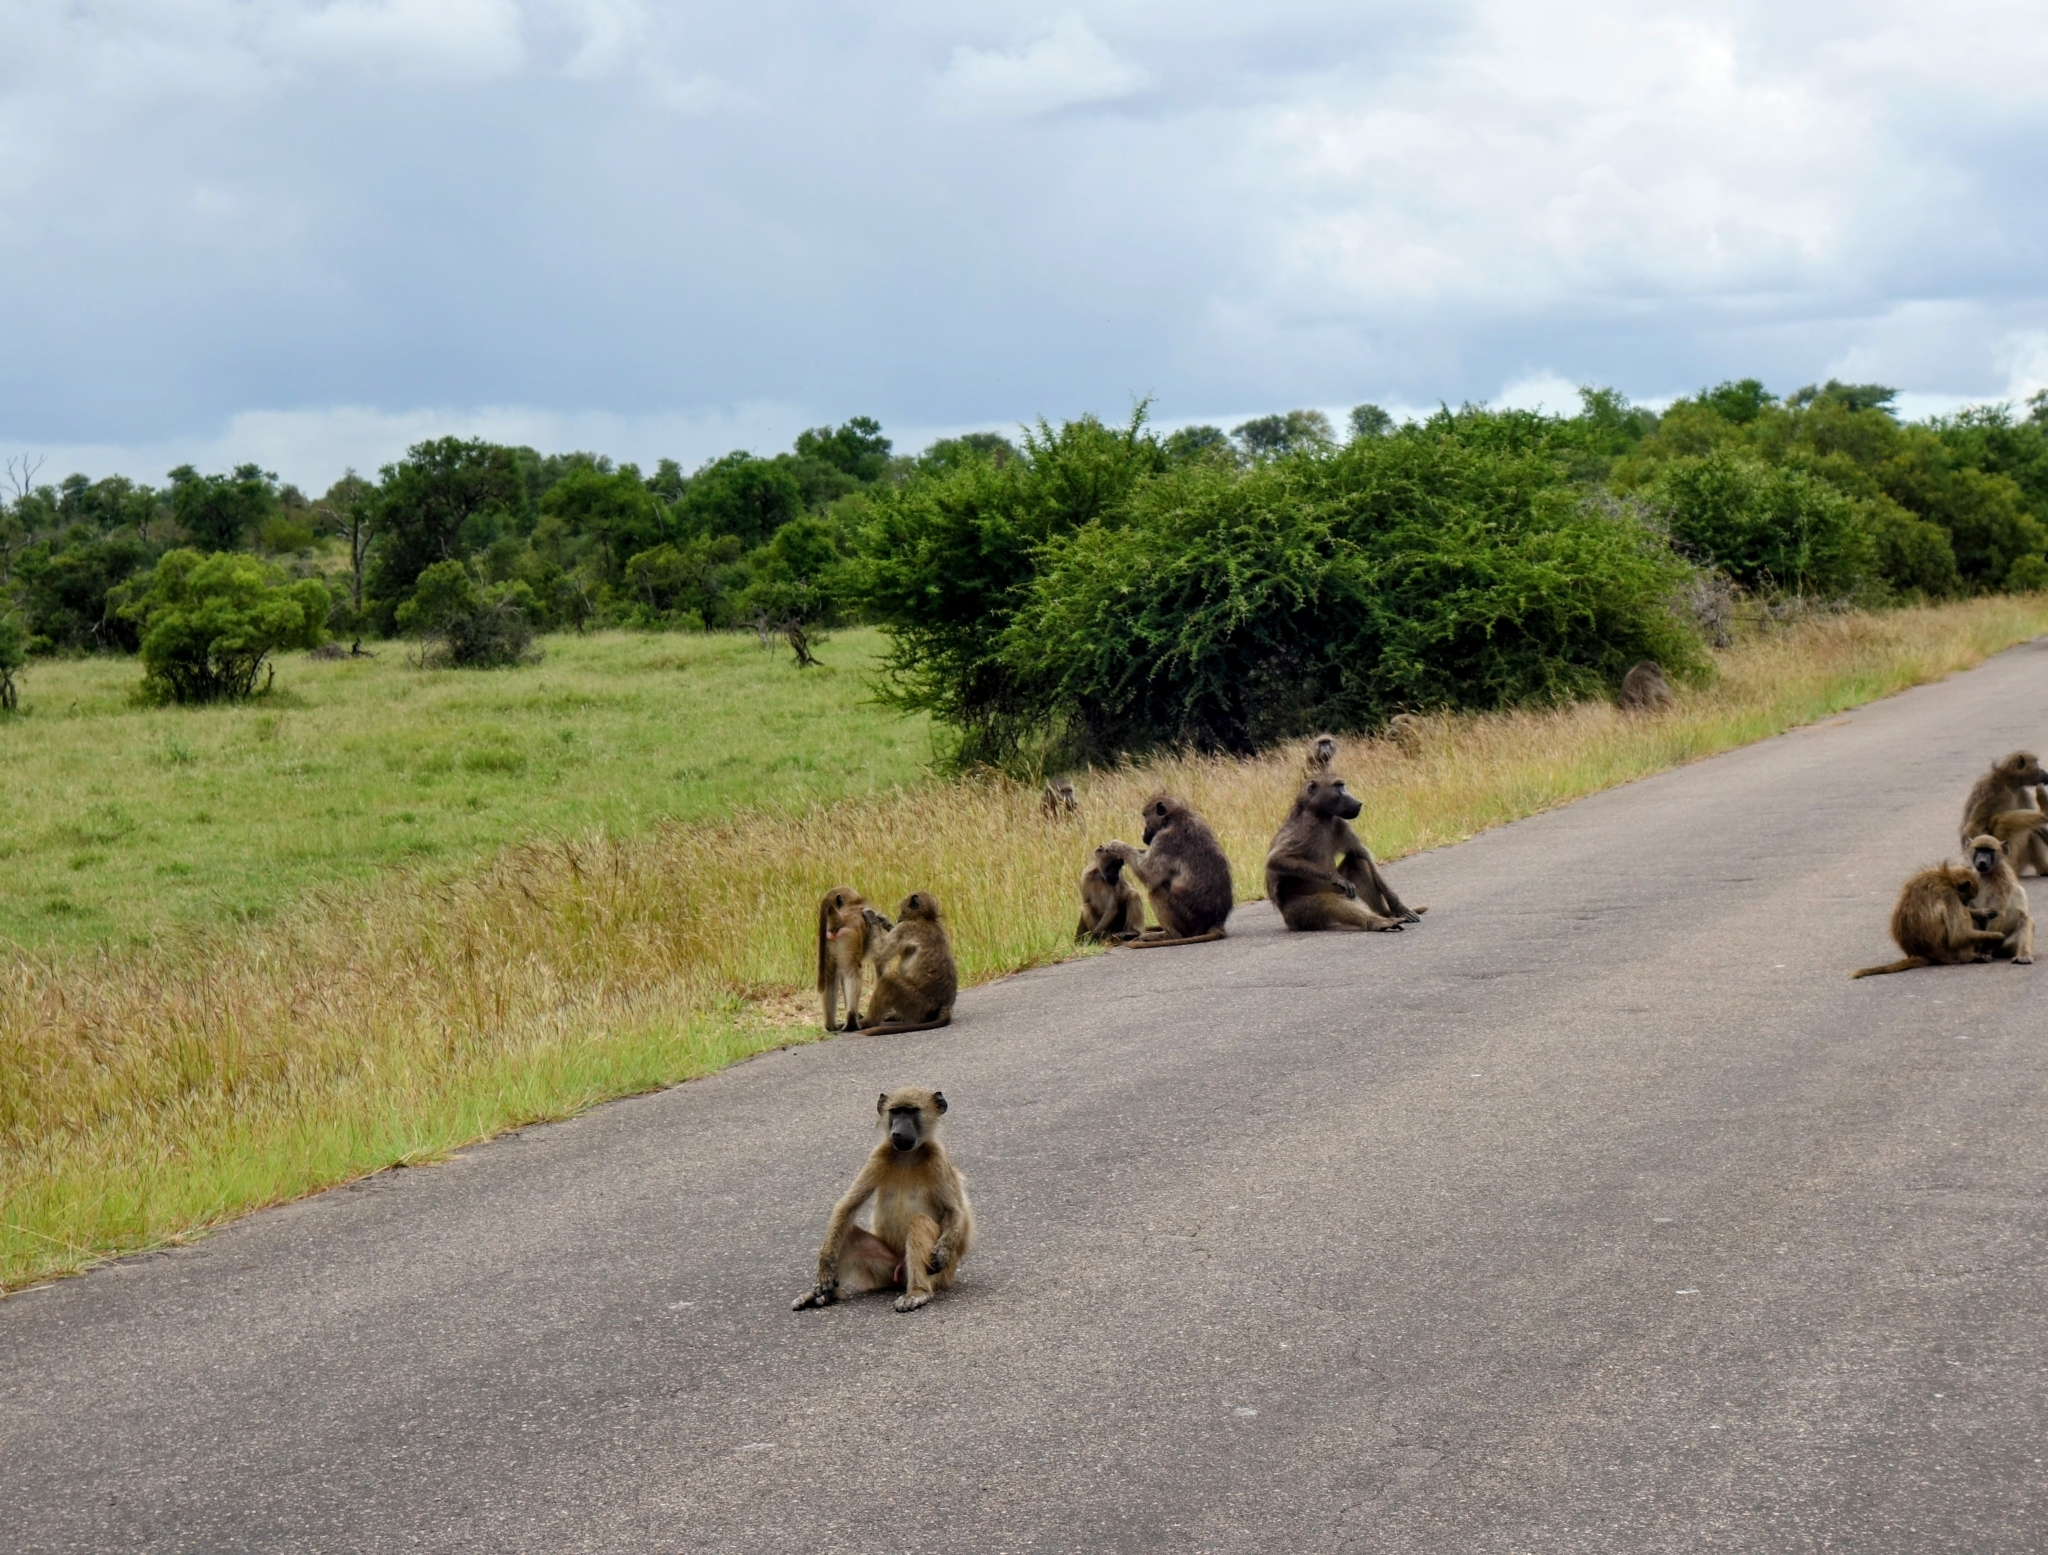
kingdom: Animalia
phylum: Chordata
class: Mammalia
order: Primates
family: Cercopithecidae
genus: Papio
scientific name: Papio ursinus
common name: Chacma baboon
